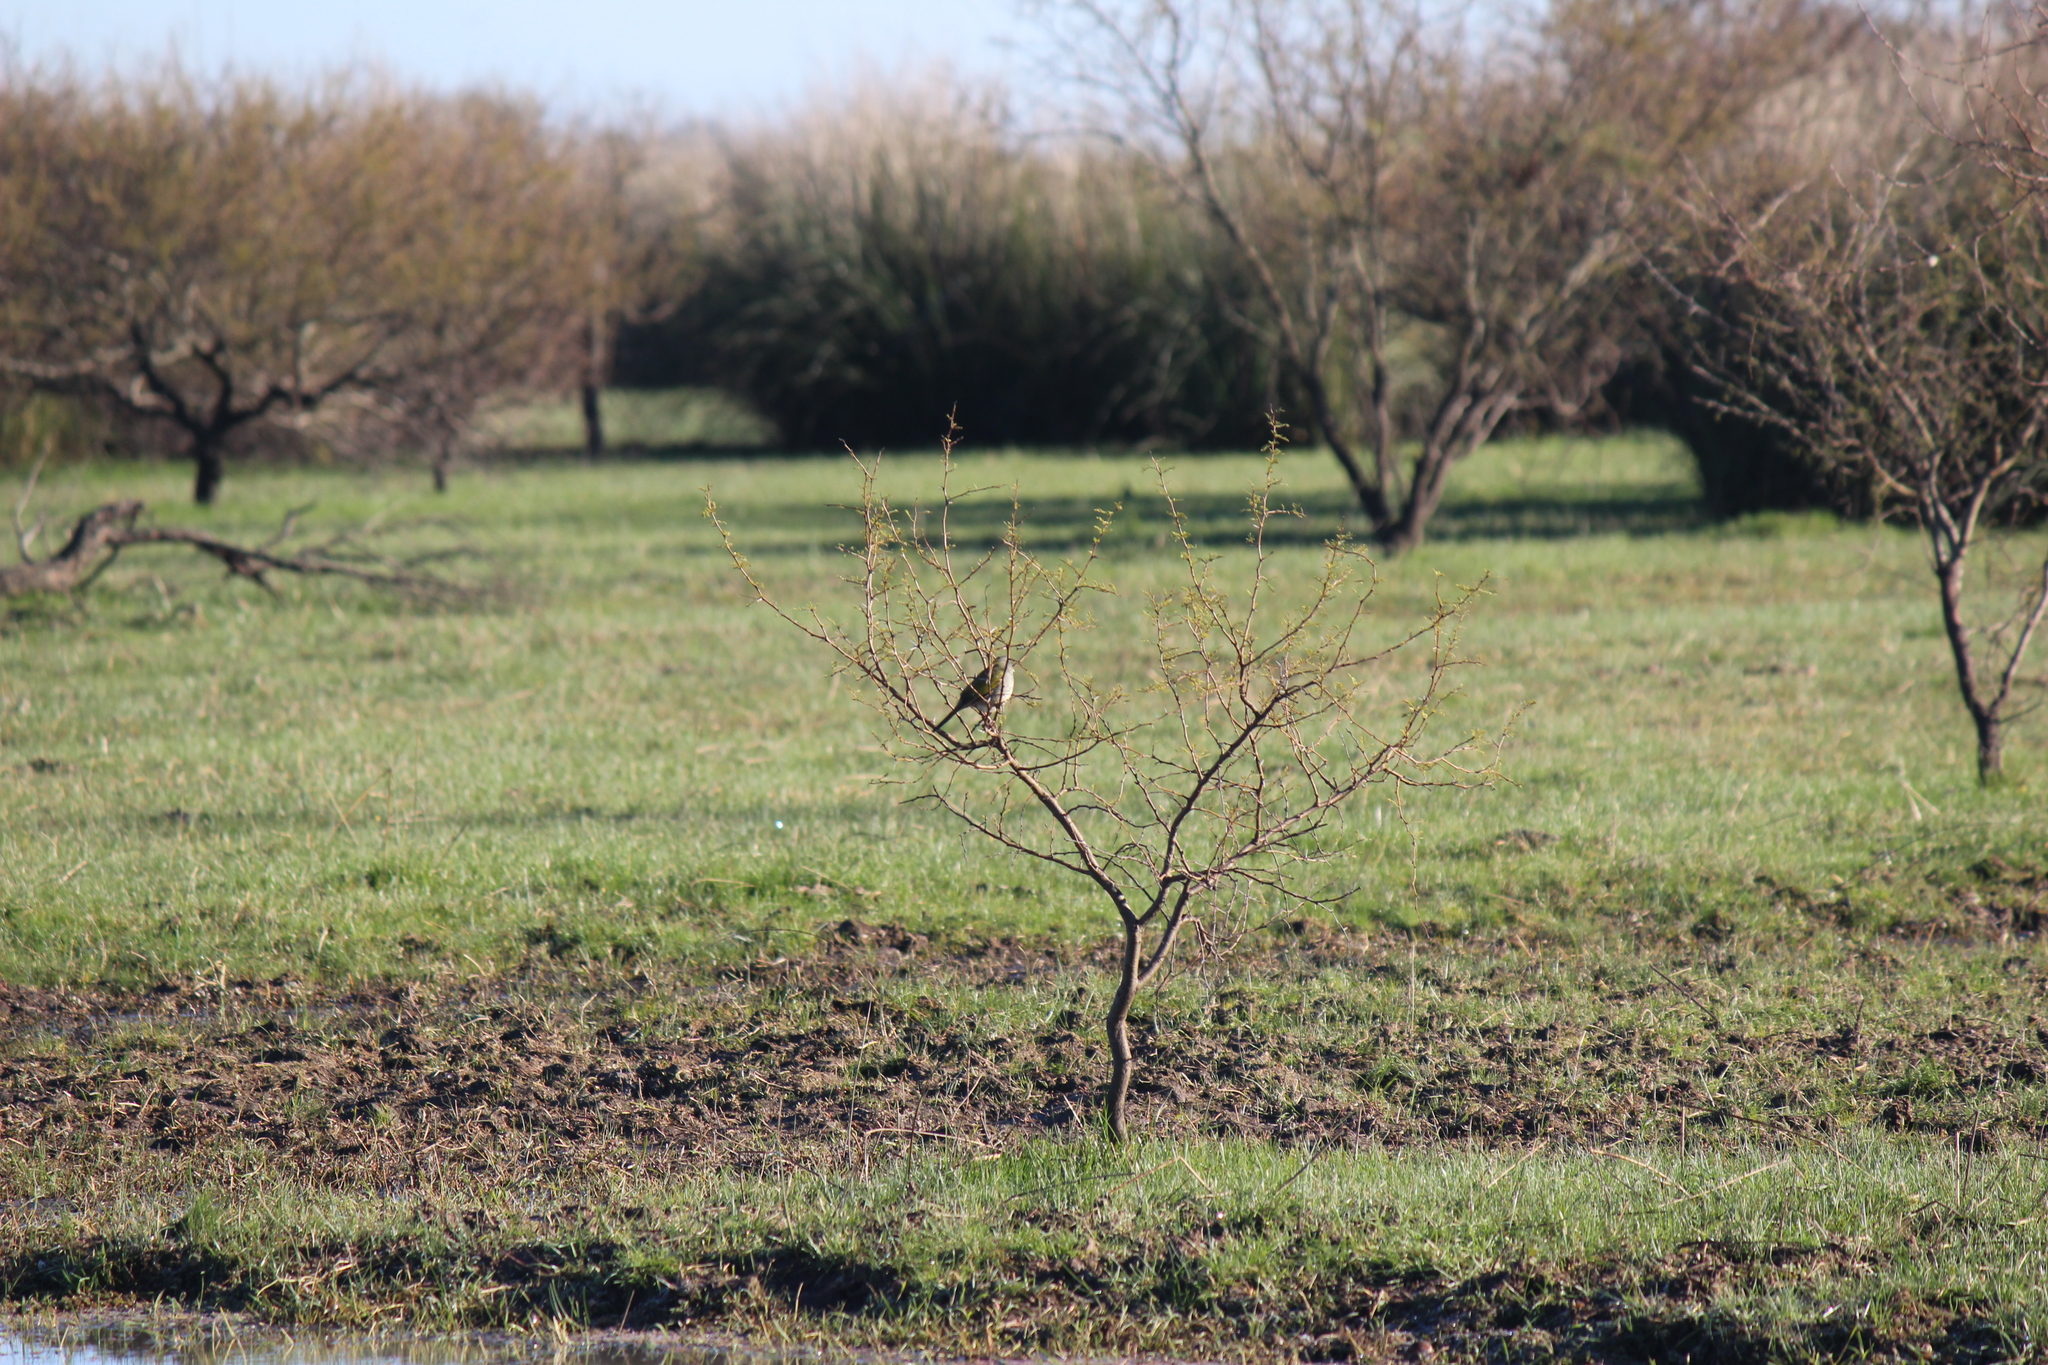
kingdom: Animalia
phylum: Chordata
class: Aves
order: Passeriformes
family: Thraupidae
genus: Embernagra
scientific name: Embernagra platensis
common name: Pampa finch
